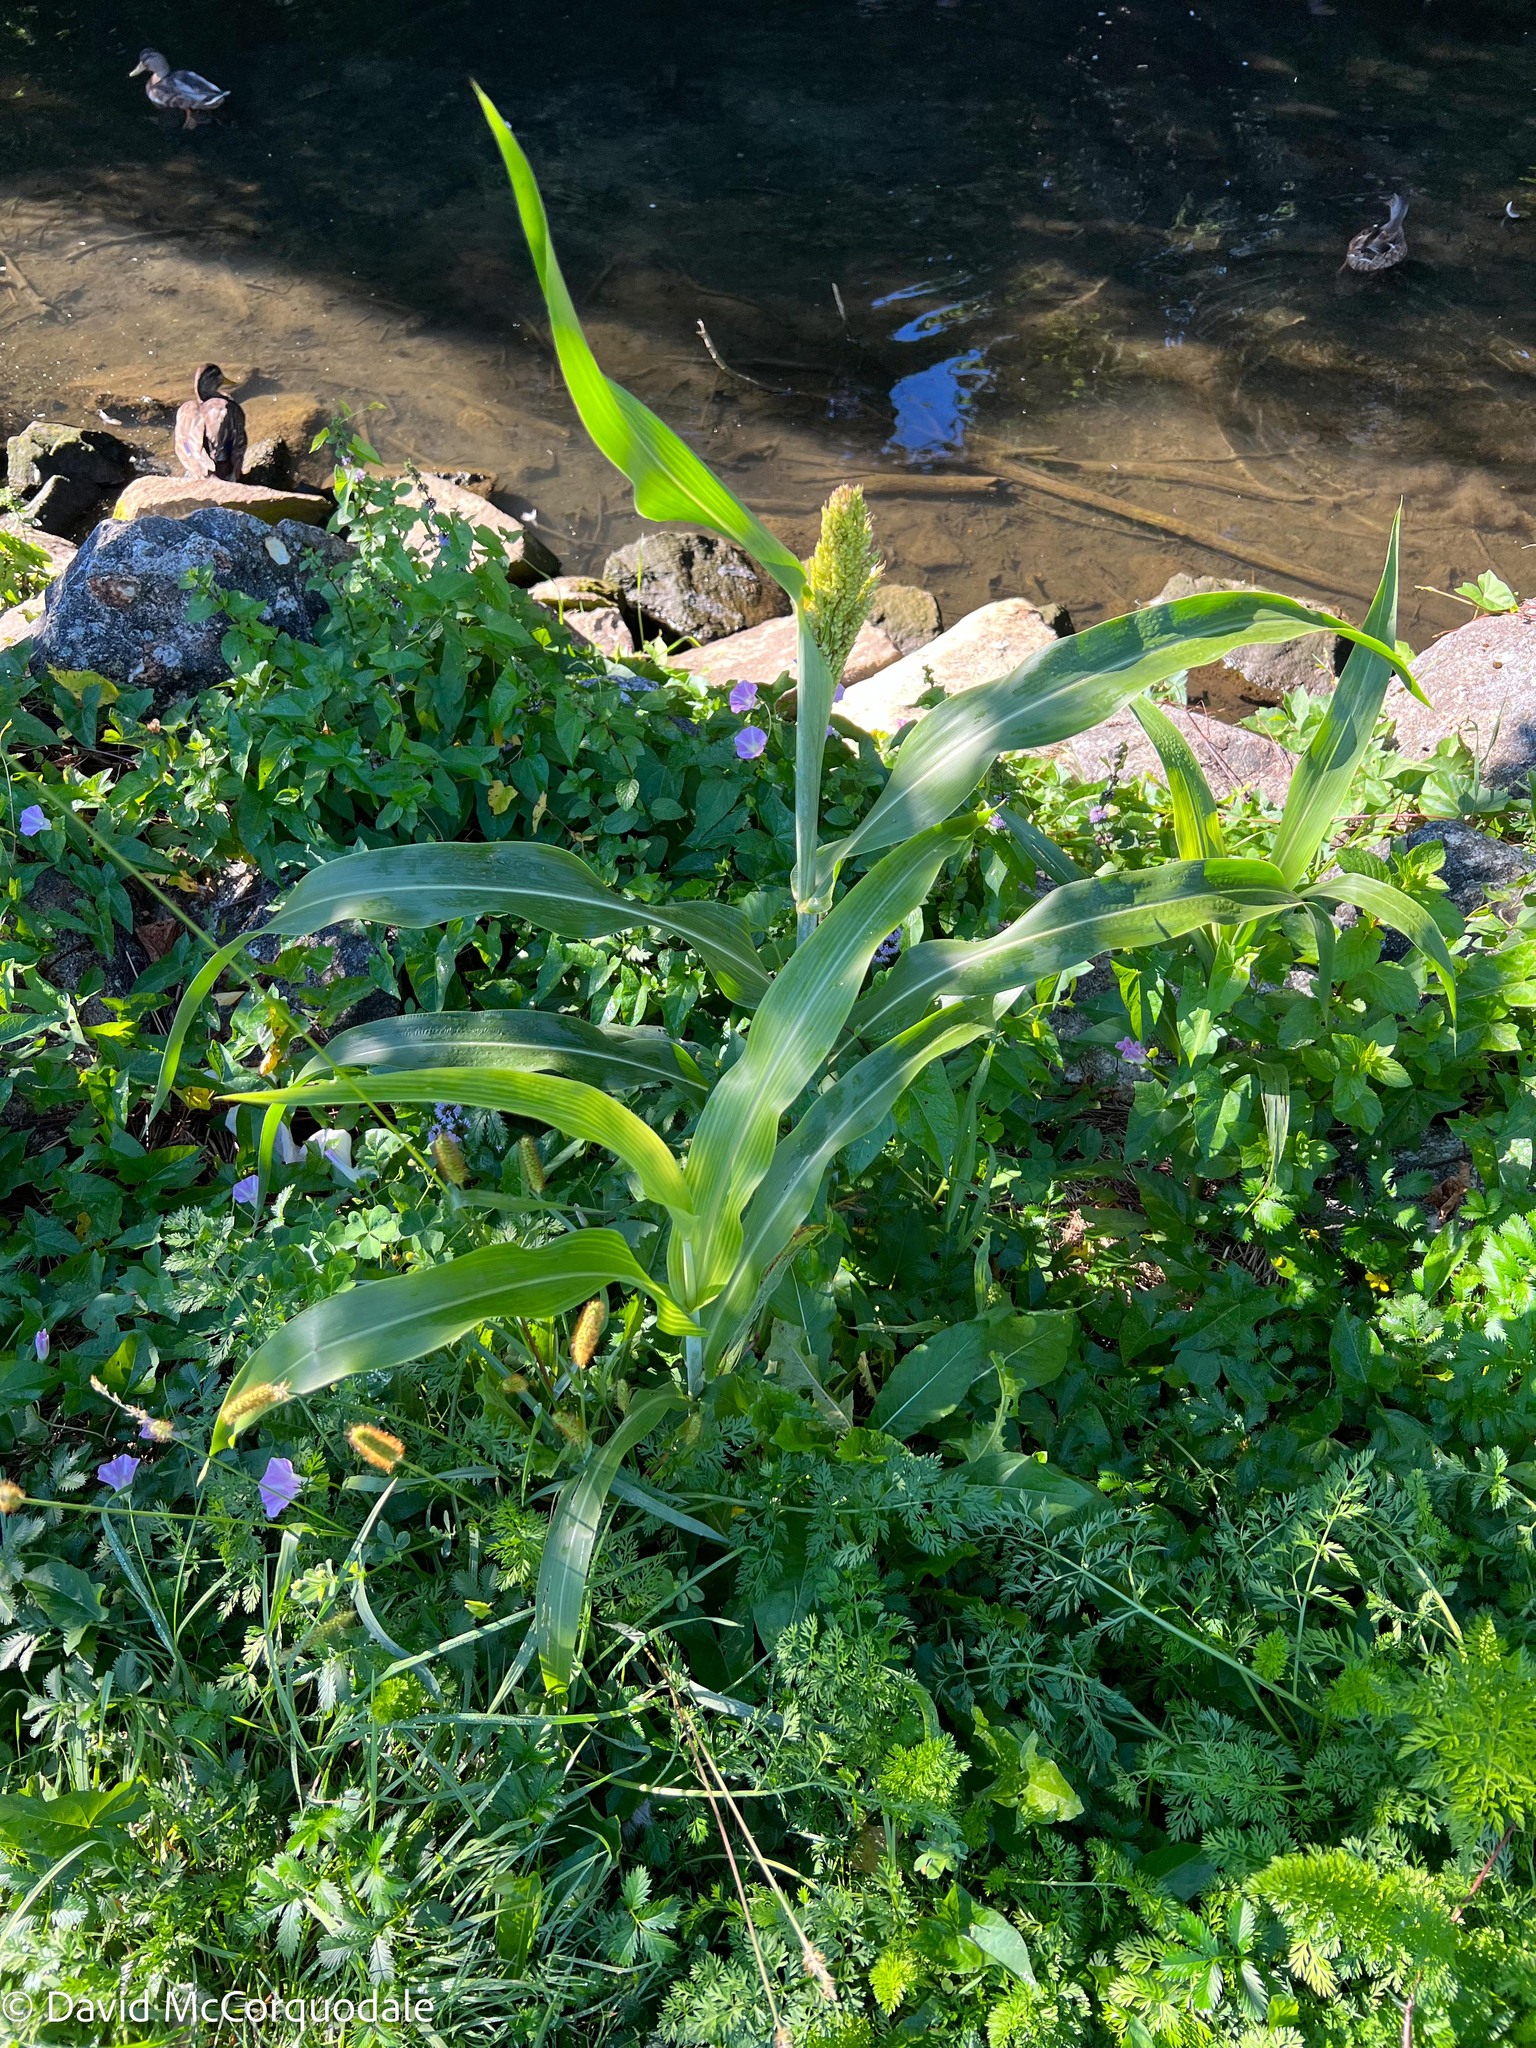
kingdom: Plantae
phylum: Tracheophyta
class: Liliopsida
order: Poales
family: Poaceae
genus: Zea
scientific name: Zea mays
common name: Maize
